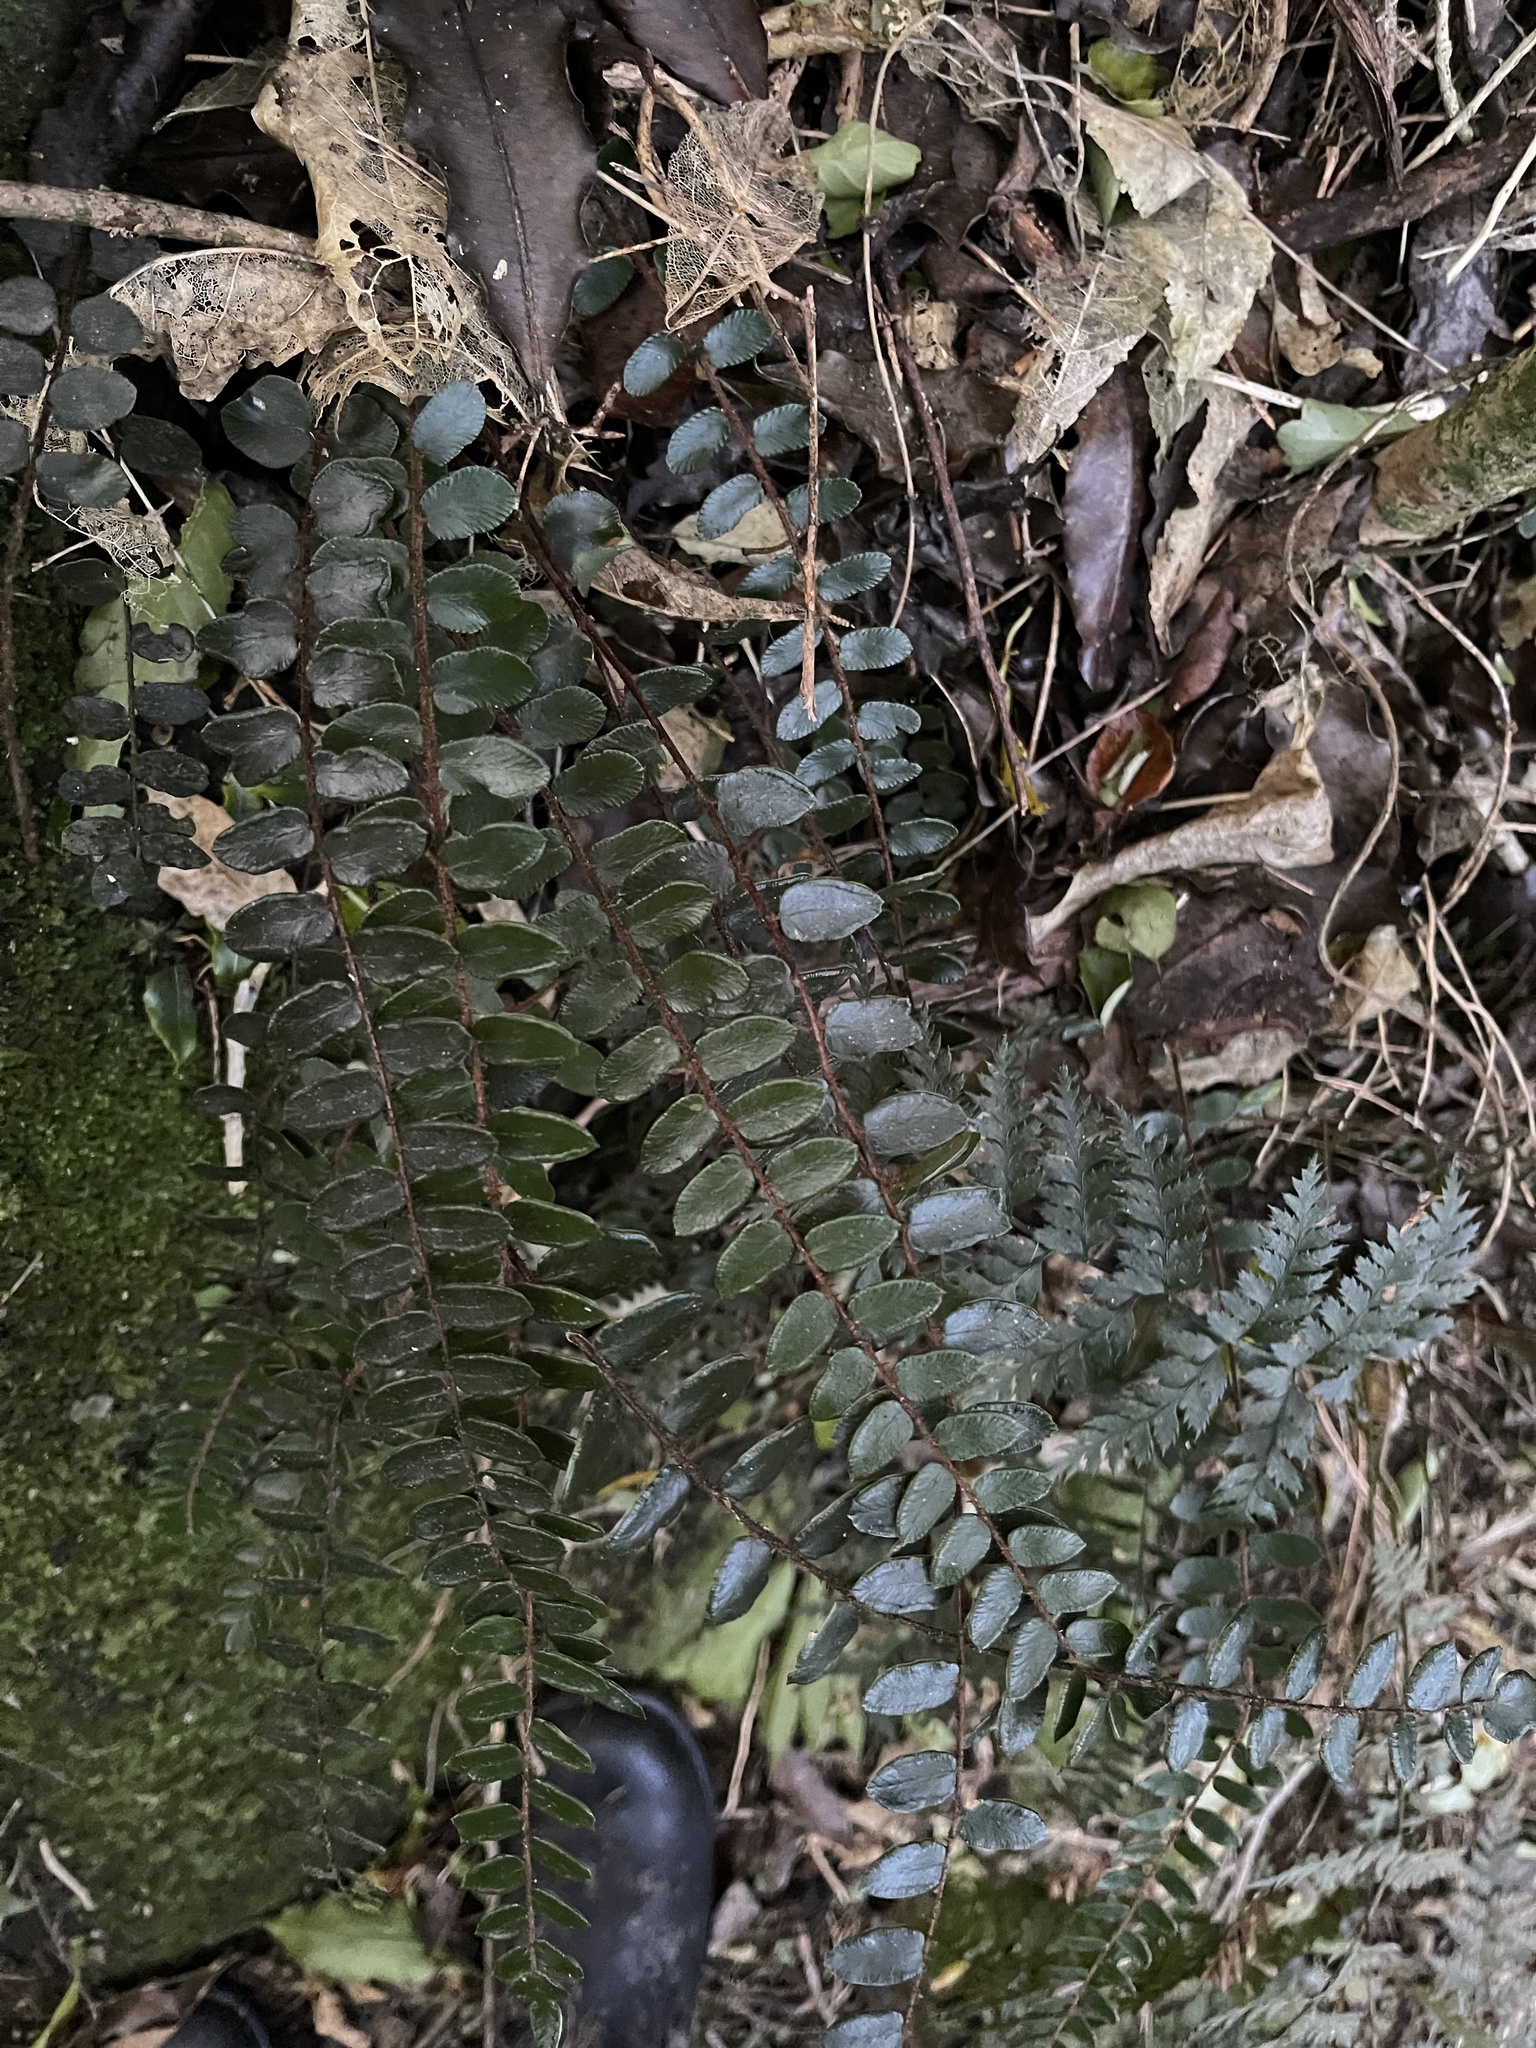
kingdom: Plantae
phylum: Tracheophyta
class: Polypodiopsida
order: Polypodiales
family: Pteridaceae
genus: Pellaea
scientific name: Pellaea rotundifolia
